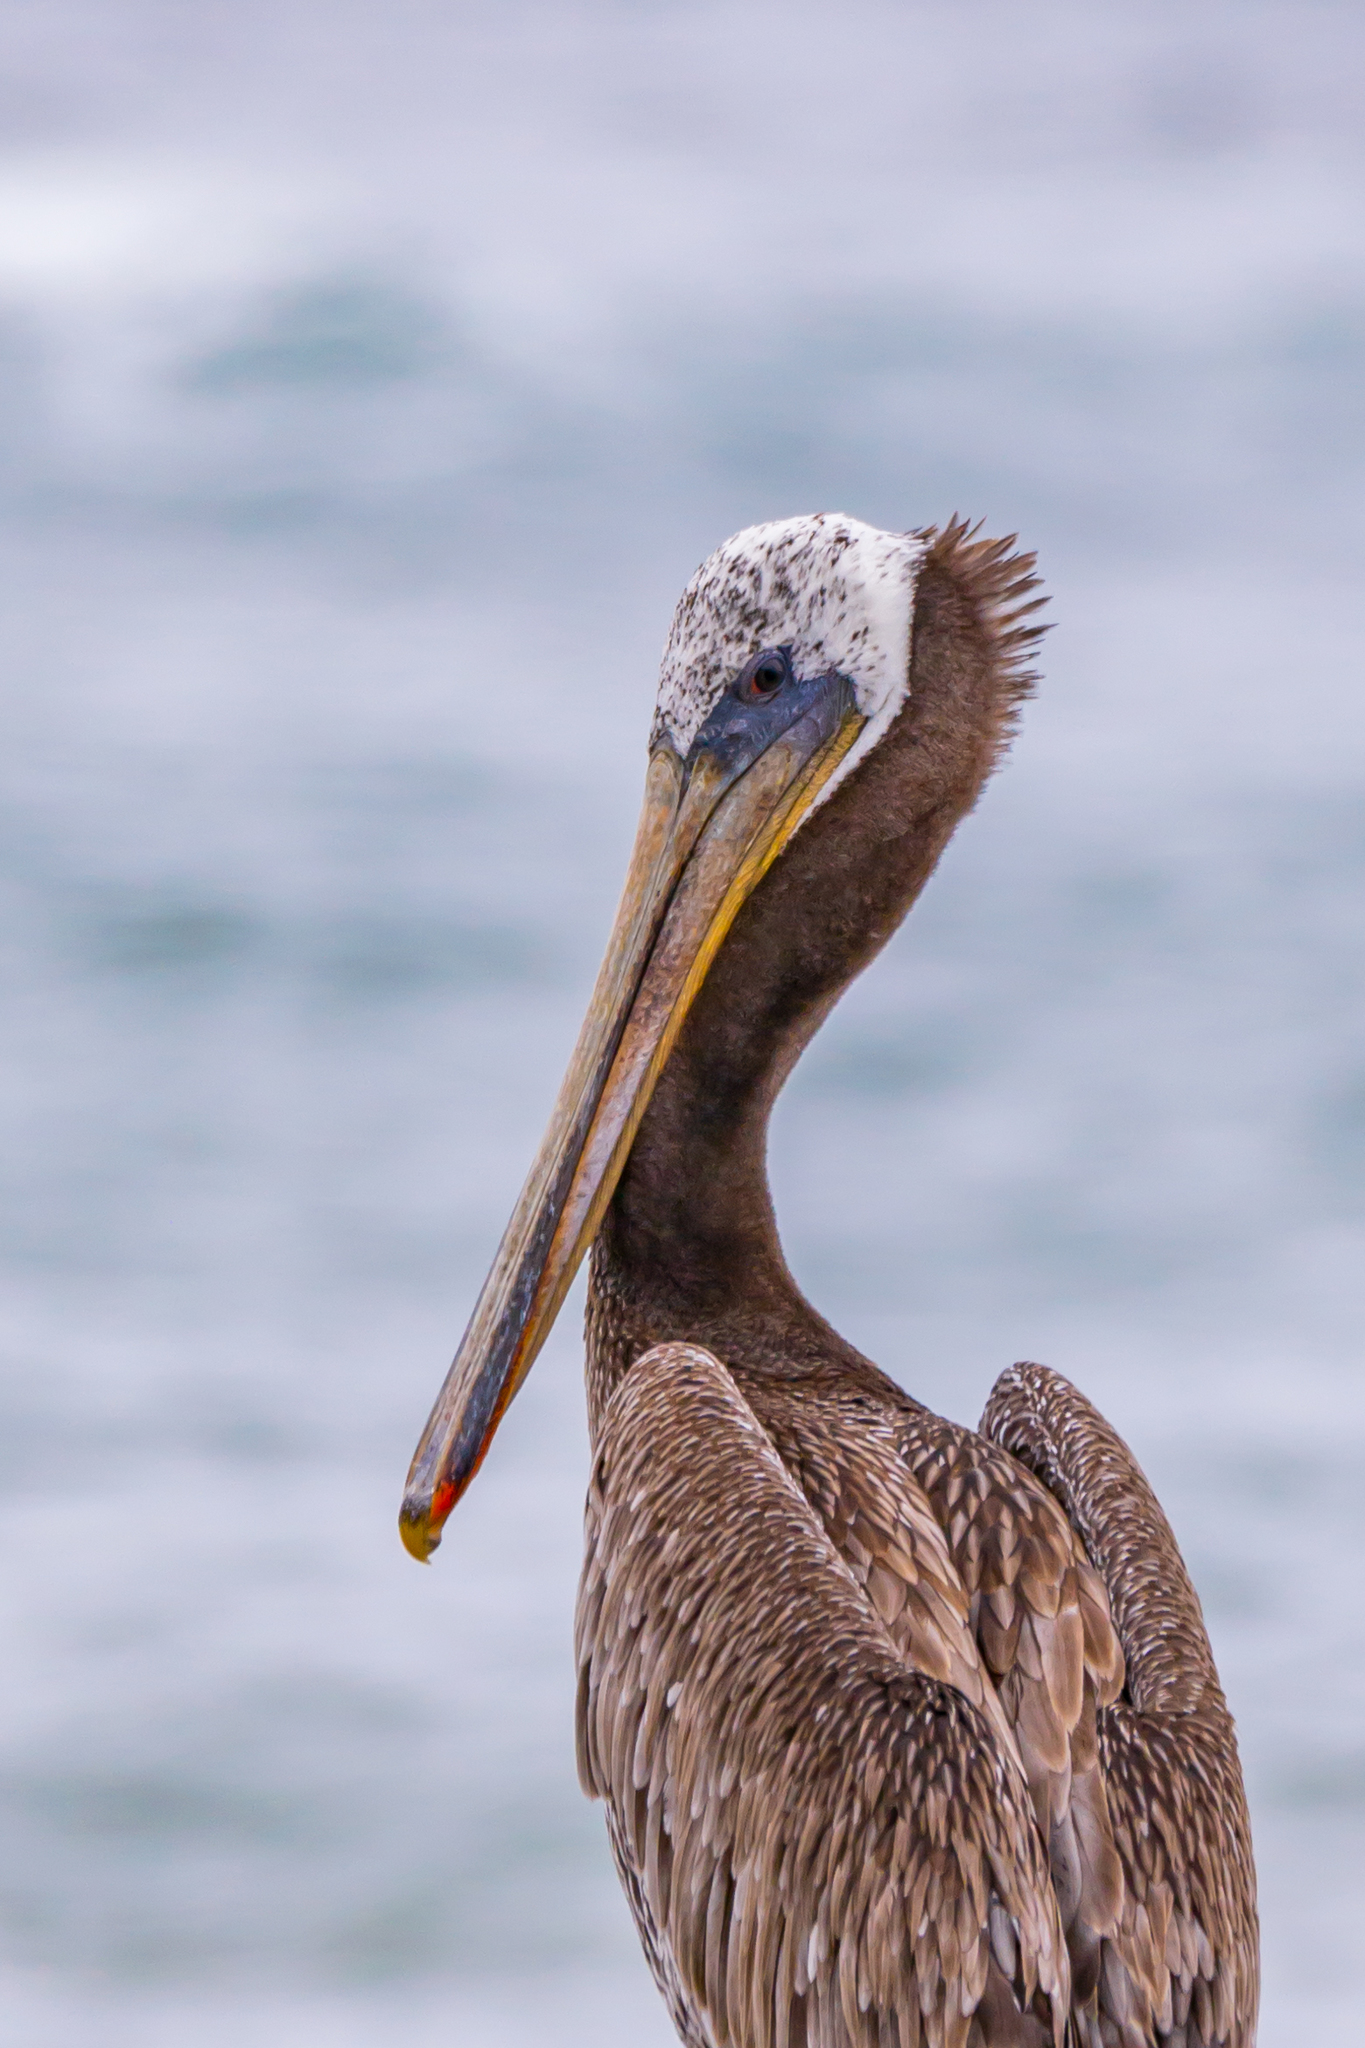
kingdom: Animalia
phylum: Chordata
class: Aves
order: Pelecaniformes
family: Pelecanidae
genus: Pelecanus
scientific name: Pelecanus occidentalis
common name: Brown pelican
